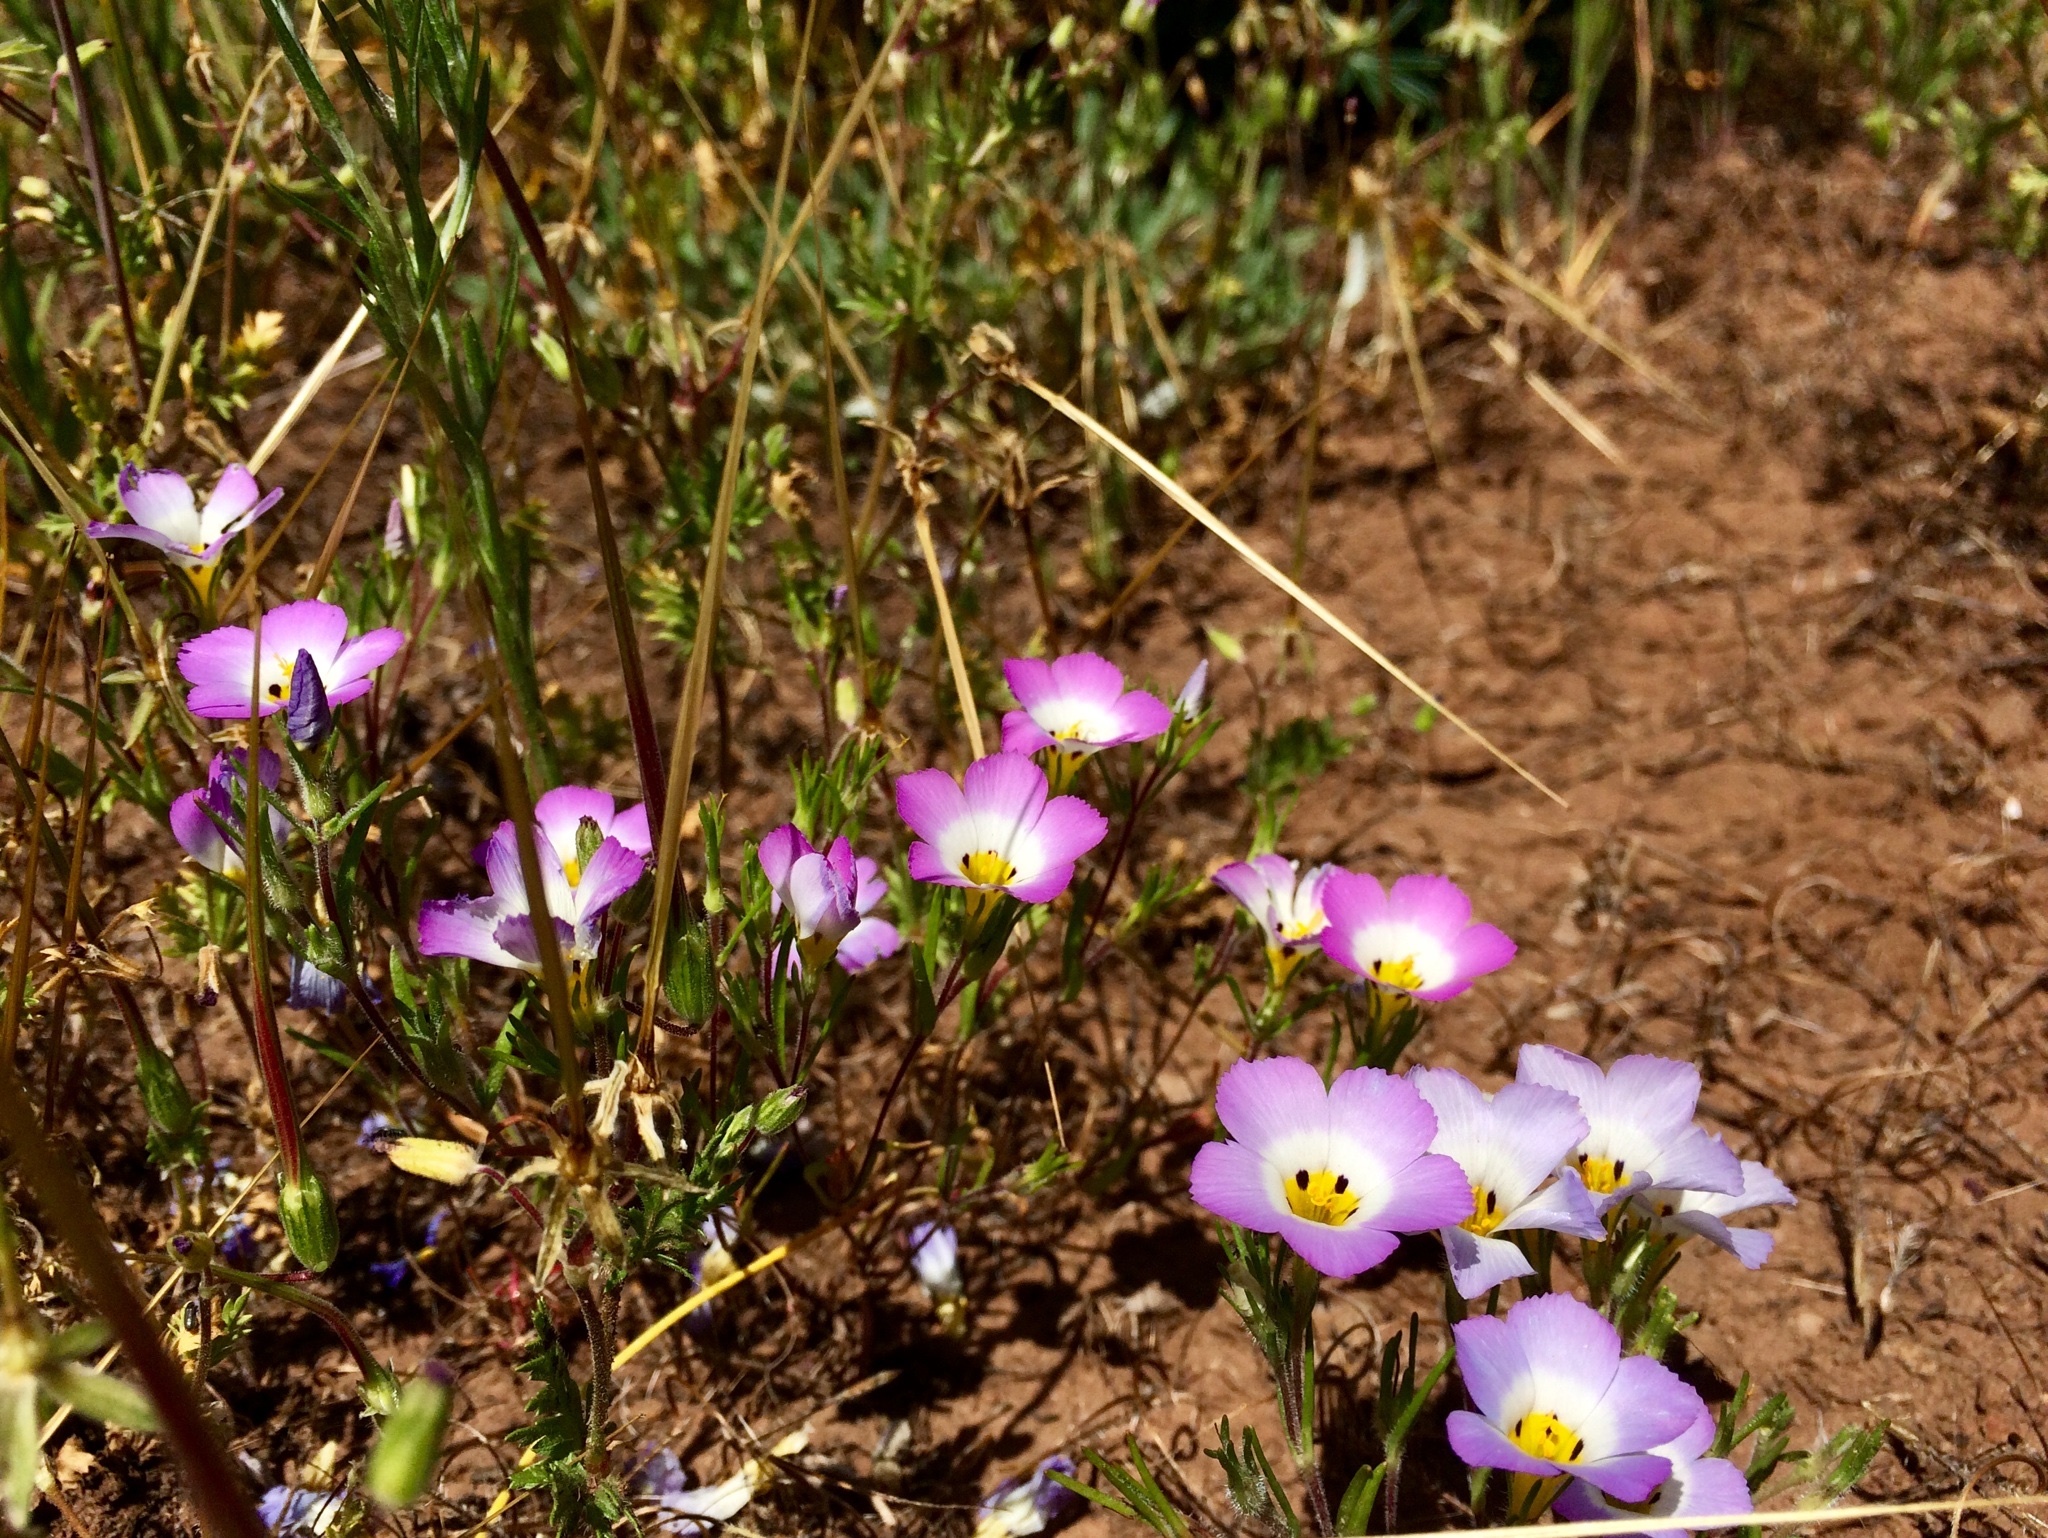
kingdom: Plantae
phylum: Tracheophyta
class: Magnoliopsida
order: Ericales
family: Polemoniaceae
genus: Linanthus
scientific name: Linanthus dianthiflorus
